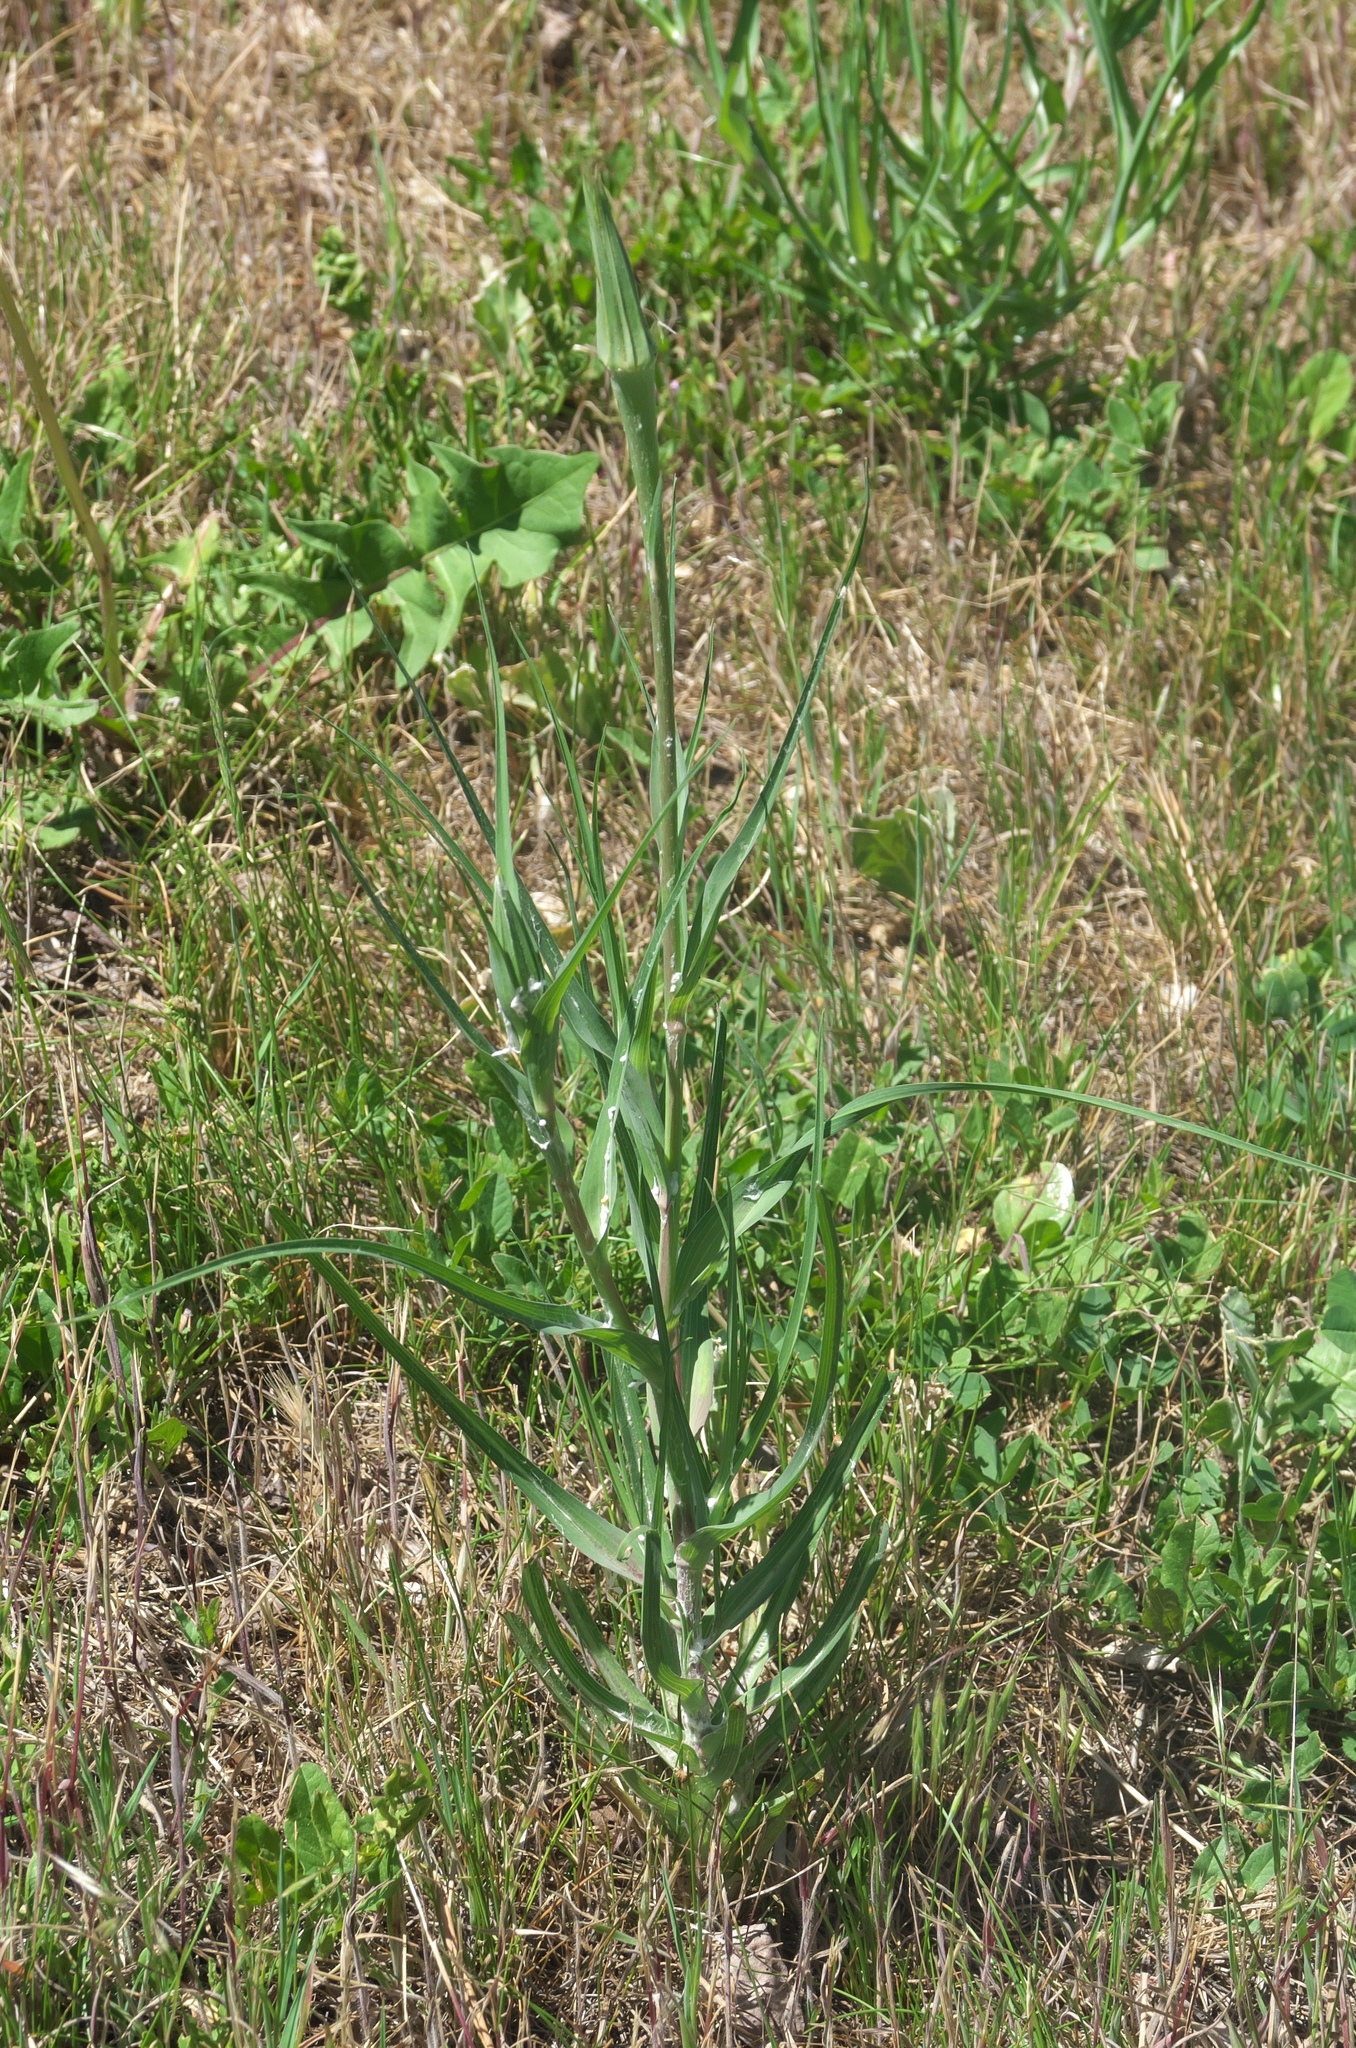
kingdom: Plantae
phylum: Tracheophyta
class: Magnoliopsida
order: Asterales
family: Asteraceae
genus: Tragopogon
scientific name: Tragopogon dubius
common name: Yellow salsify
